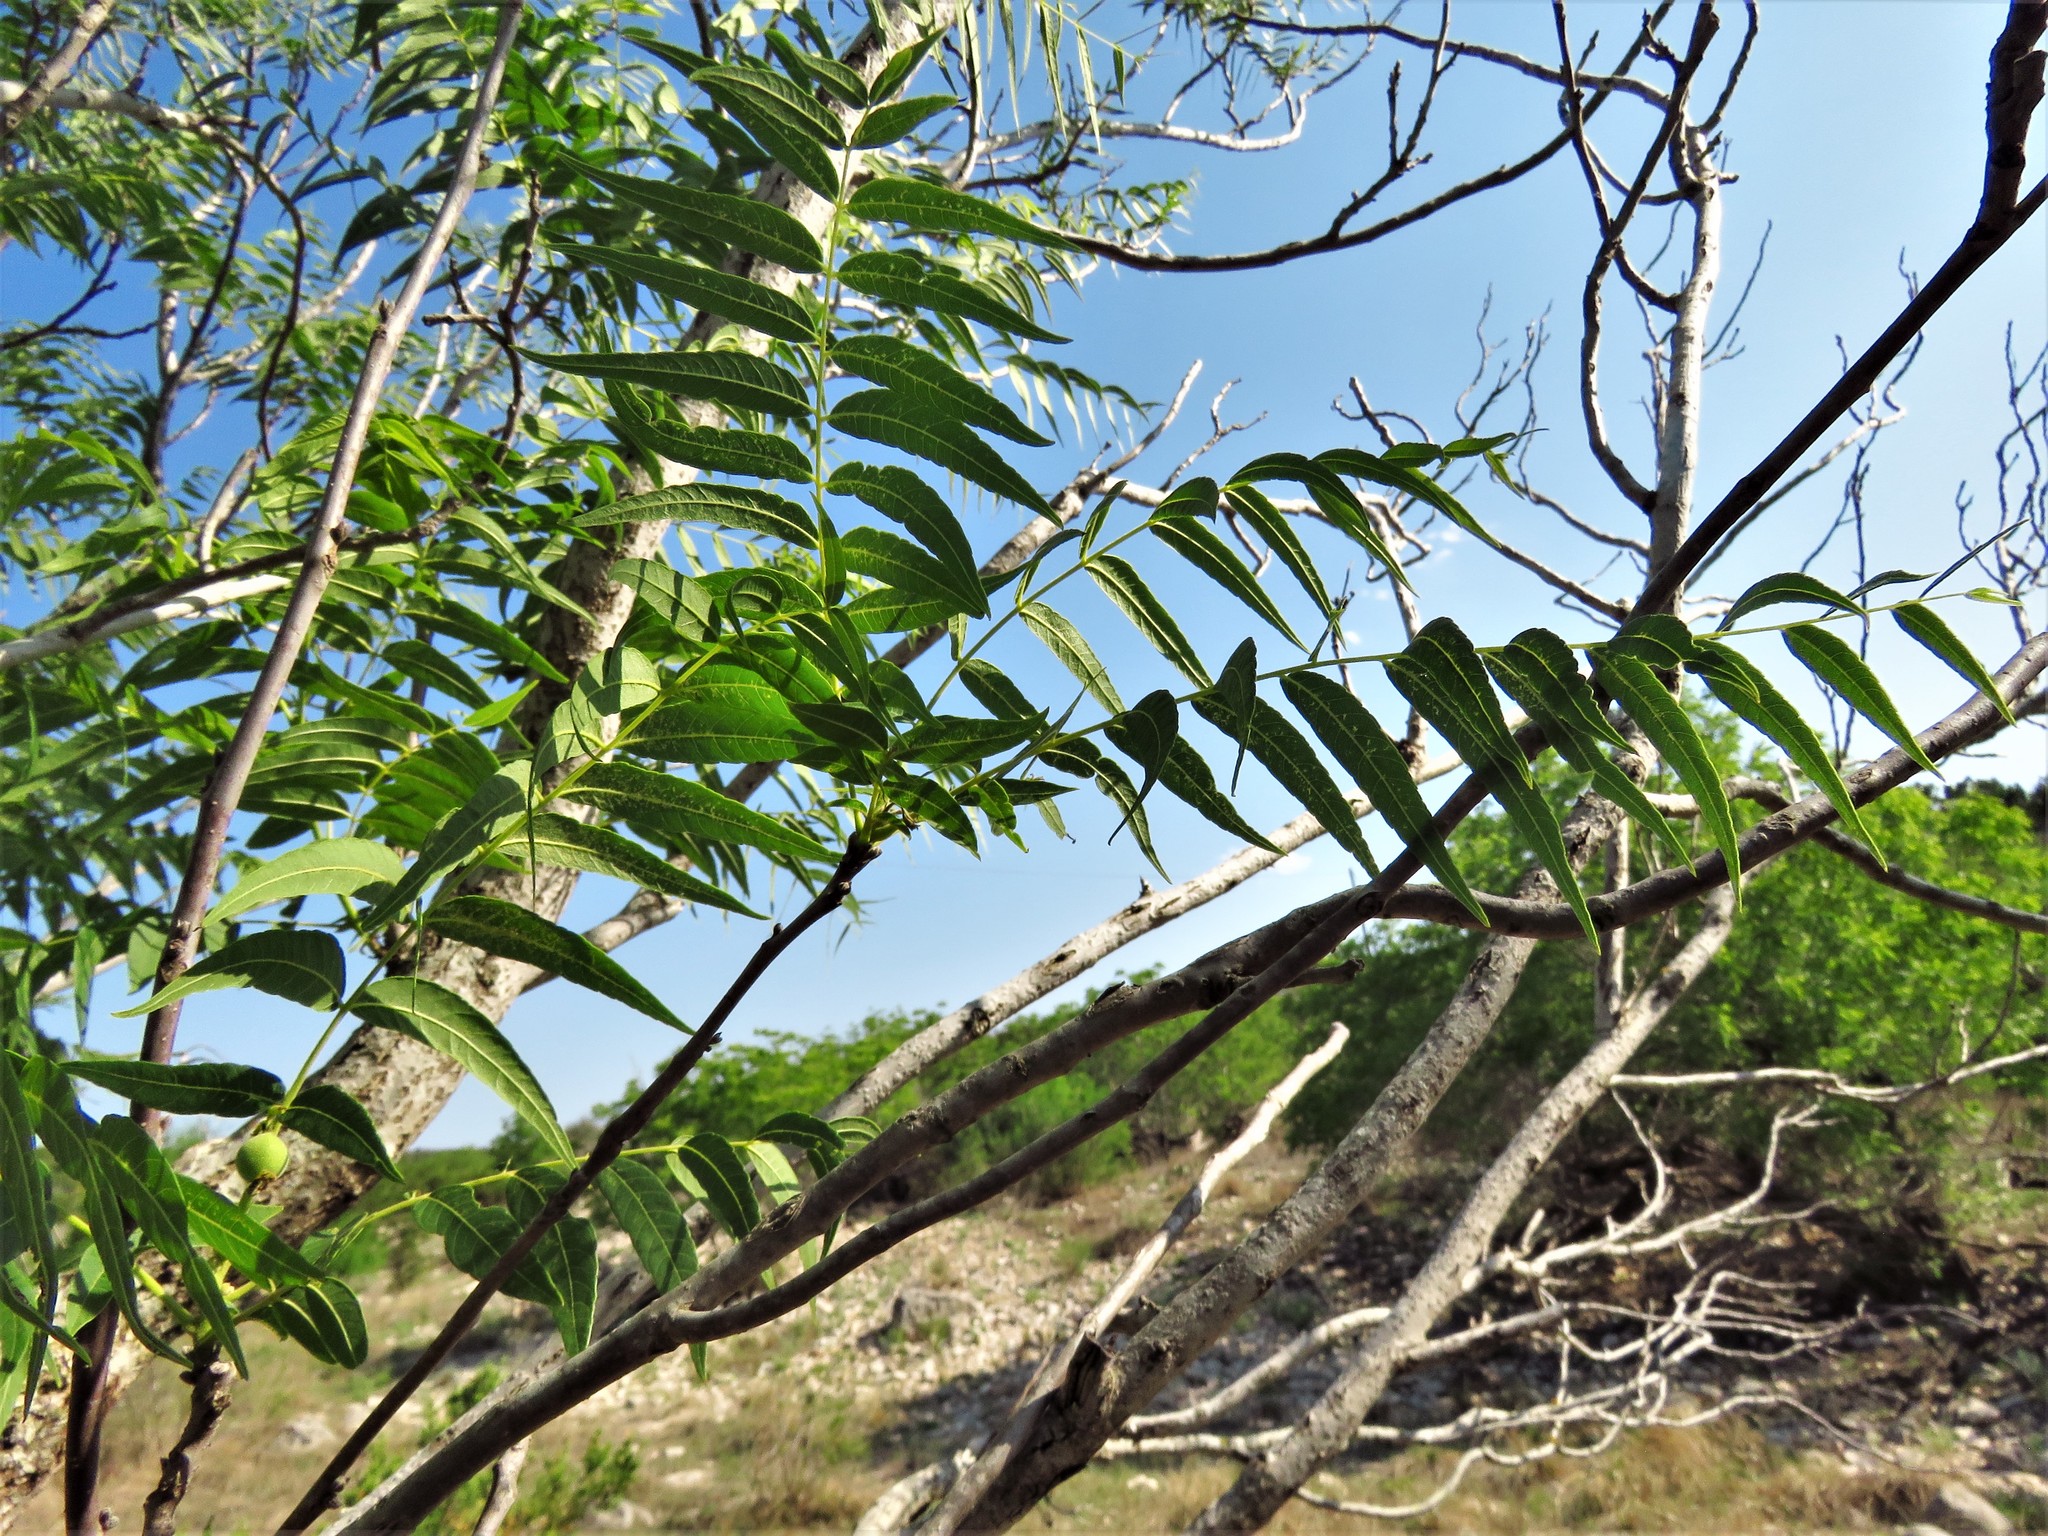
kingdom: Plantae
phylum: Tracheophyta
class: Magnoliopsida
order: Fagales
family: Juglandaceae
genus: Juglans
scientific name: Juglans microcarpa
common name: Texas walnut
